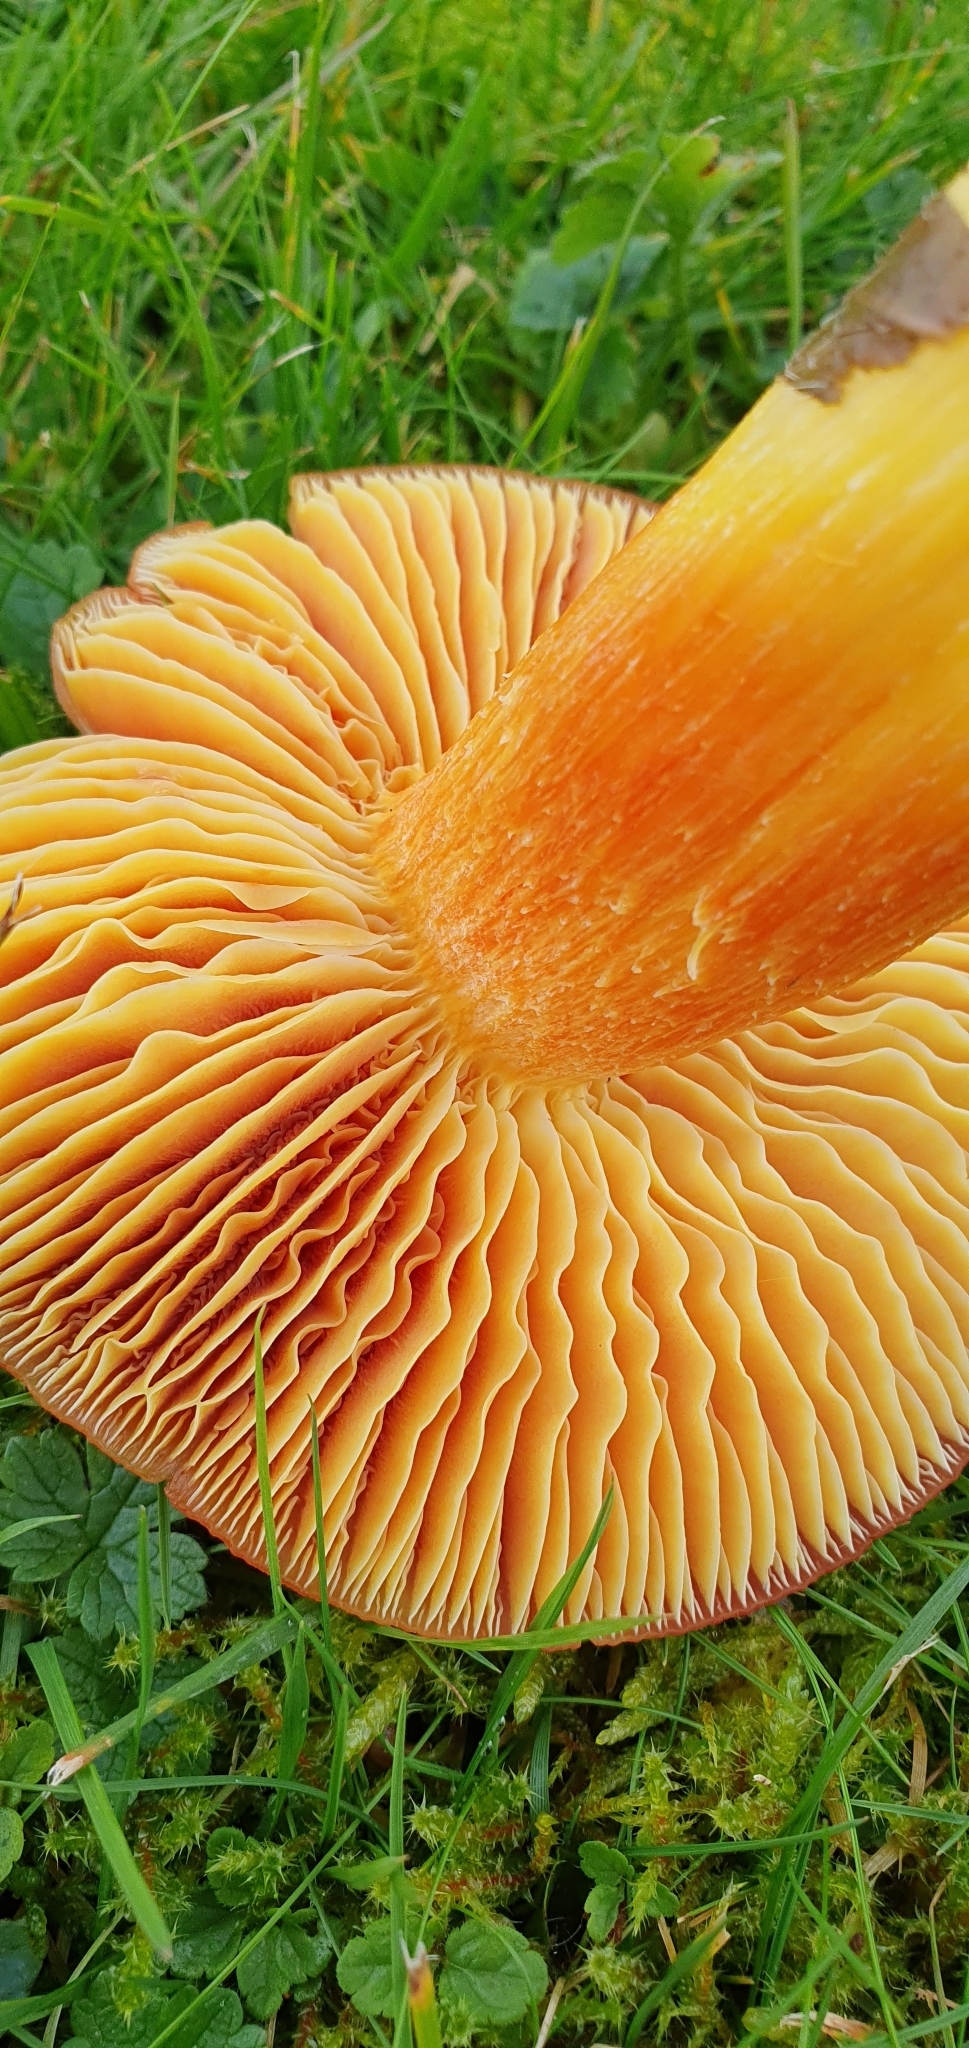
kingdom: Fungi
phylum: Basidiomycota
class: Agaricomycetes
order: Agaricales
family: Hygrophoraceae
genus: Hygrocybe
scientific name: Hygrocybe punicea
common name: Crimson waxcap
